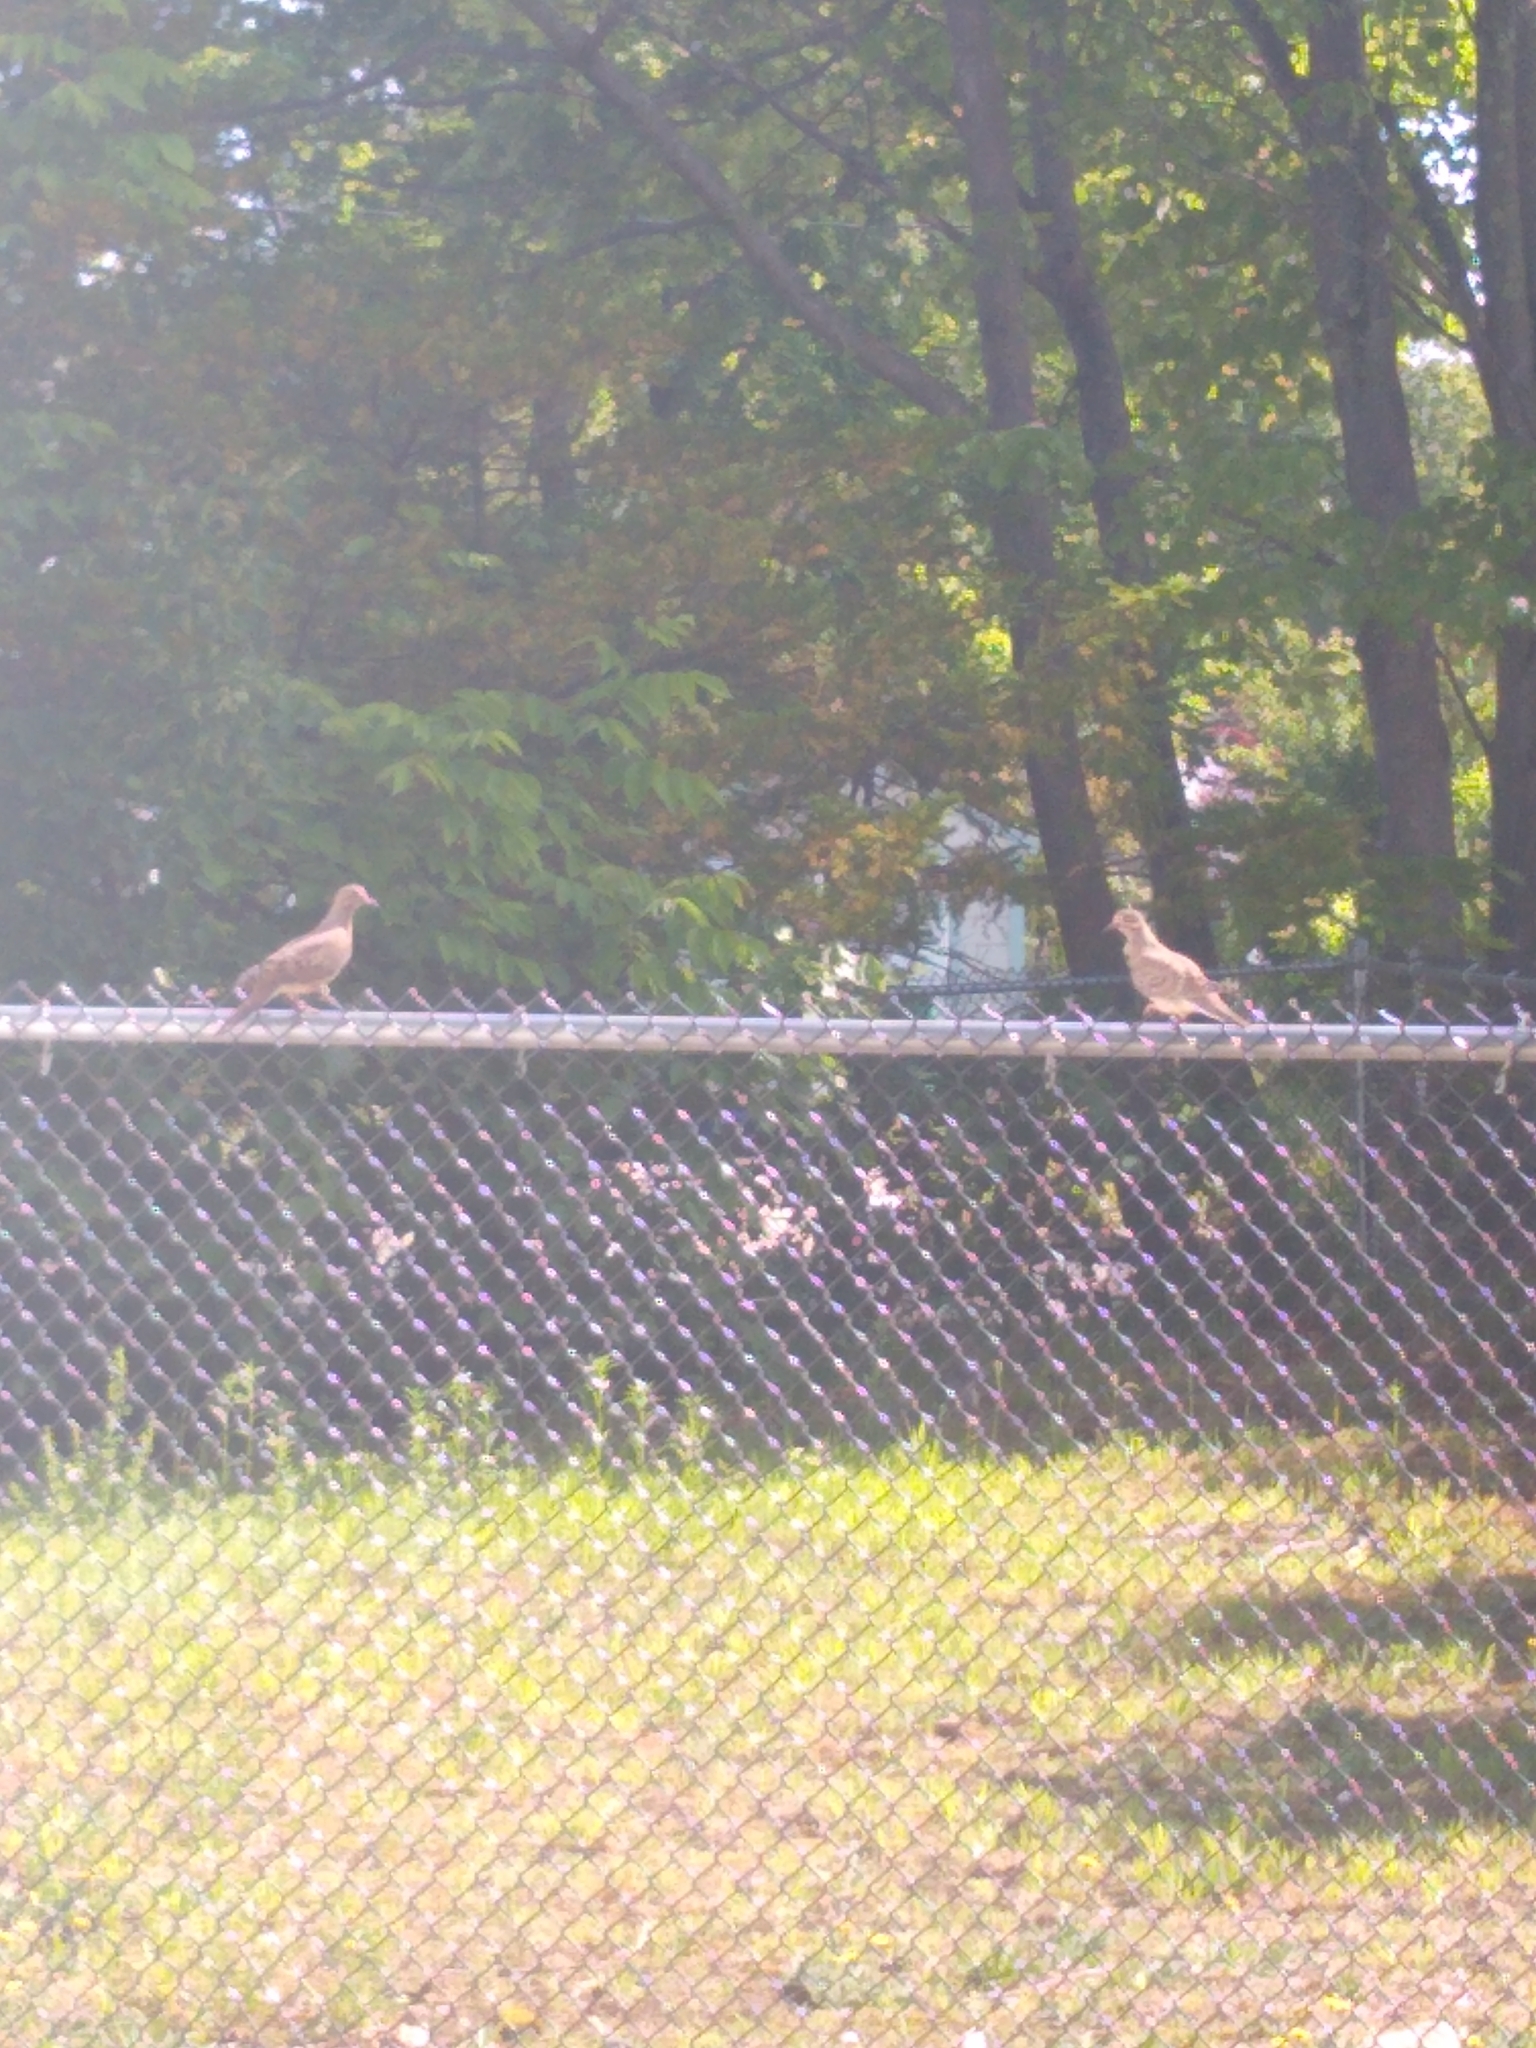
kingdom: Animalia
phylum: Chordata
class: Aves
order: Columbiformes
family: Columbidae
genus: Zenaida
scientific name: Zenaida macroura
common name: Mourning dove
